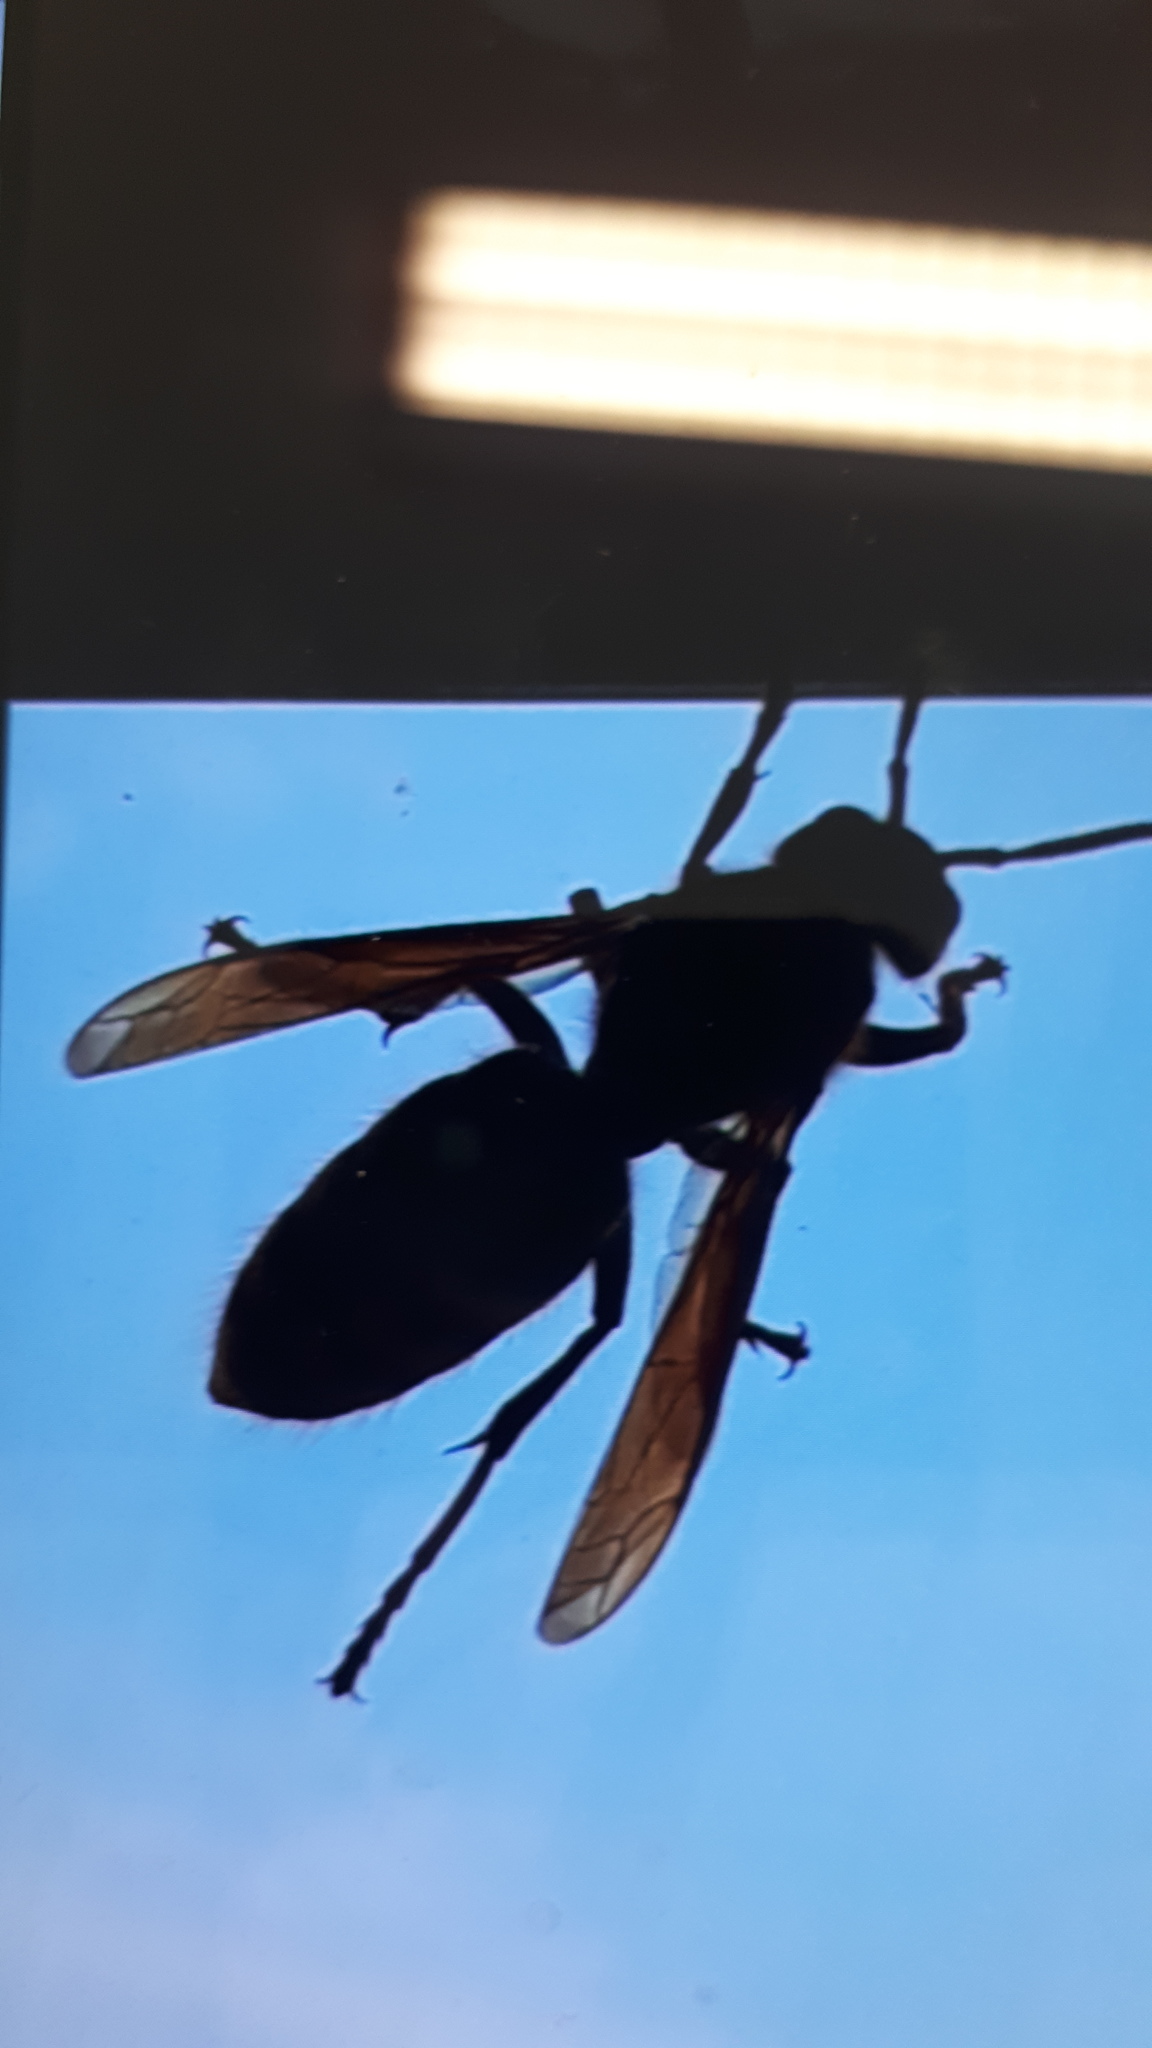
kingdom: Animalia
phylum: Arthropoda
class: Insecta
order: Hymenoptera
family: Vespidae
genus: Vespa
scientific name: Vespa crabro
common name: Hornet
